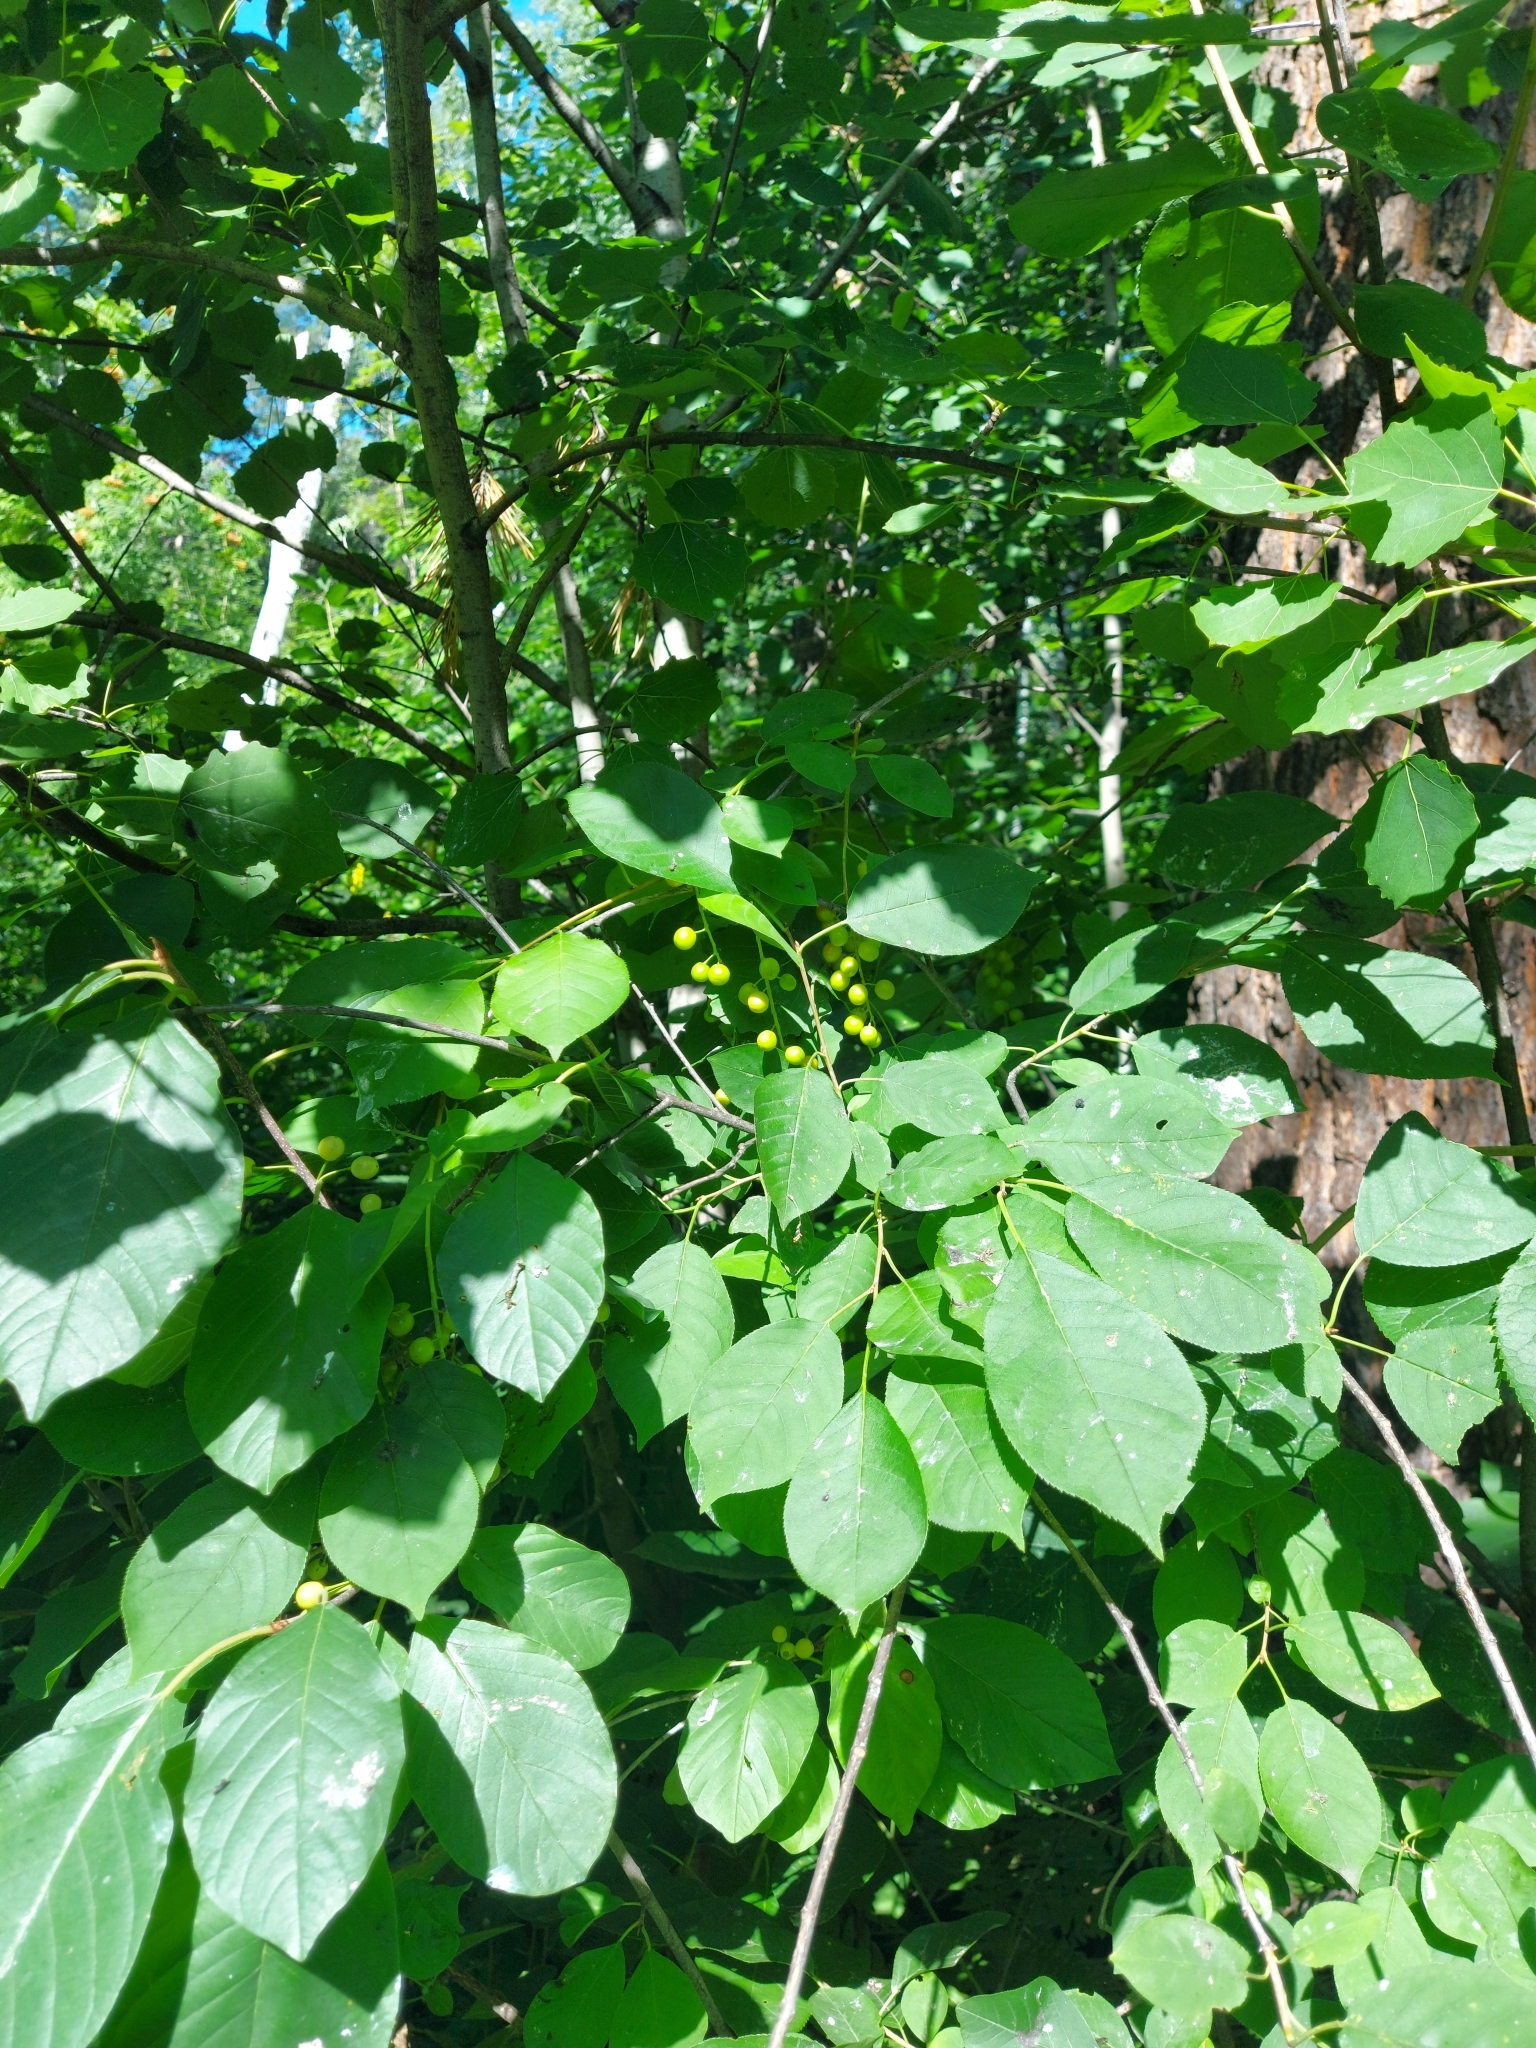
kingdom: Plantae
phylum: Tracheophyta
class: Magnoliopsida
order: Rosales
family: Rosaceae
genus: Prunus
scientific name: Prunus padus
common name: Bird cherry
